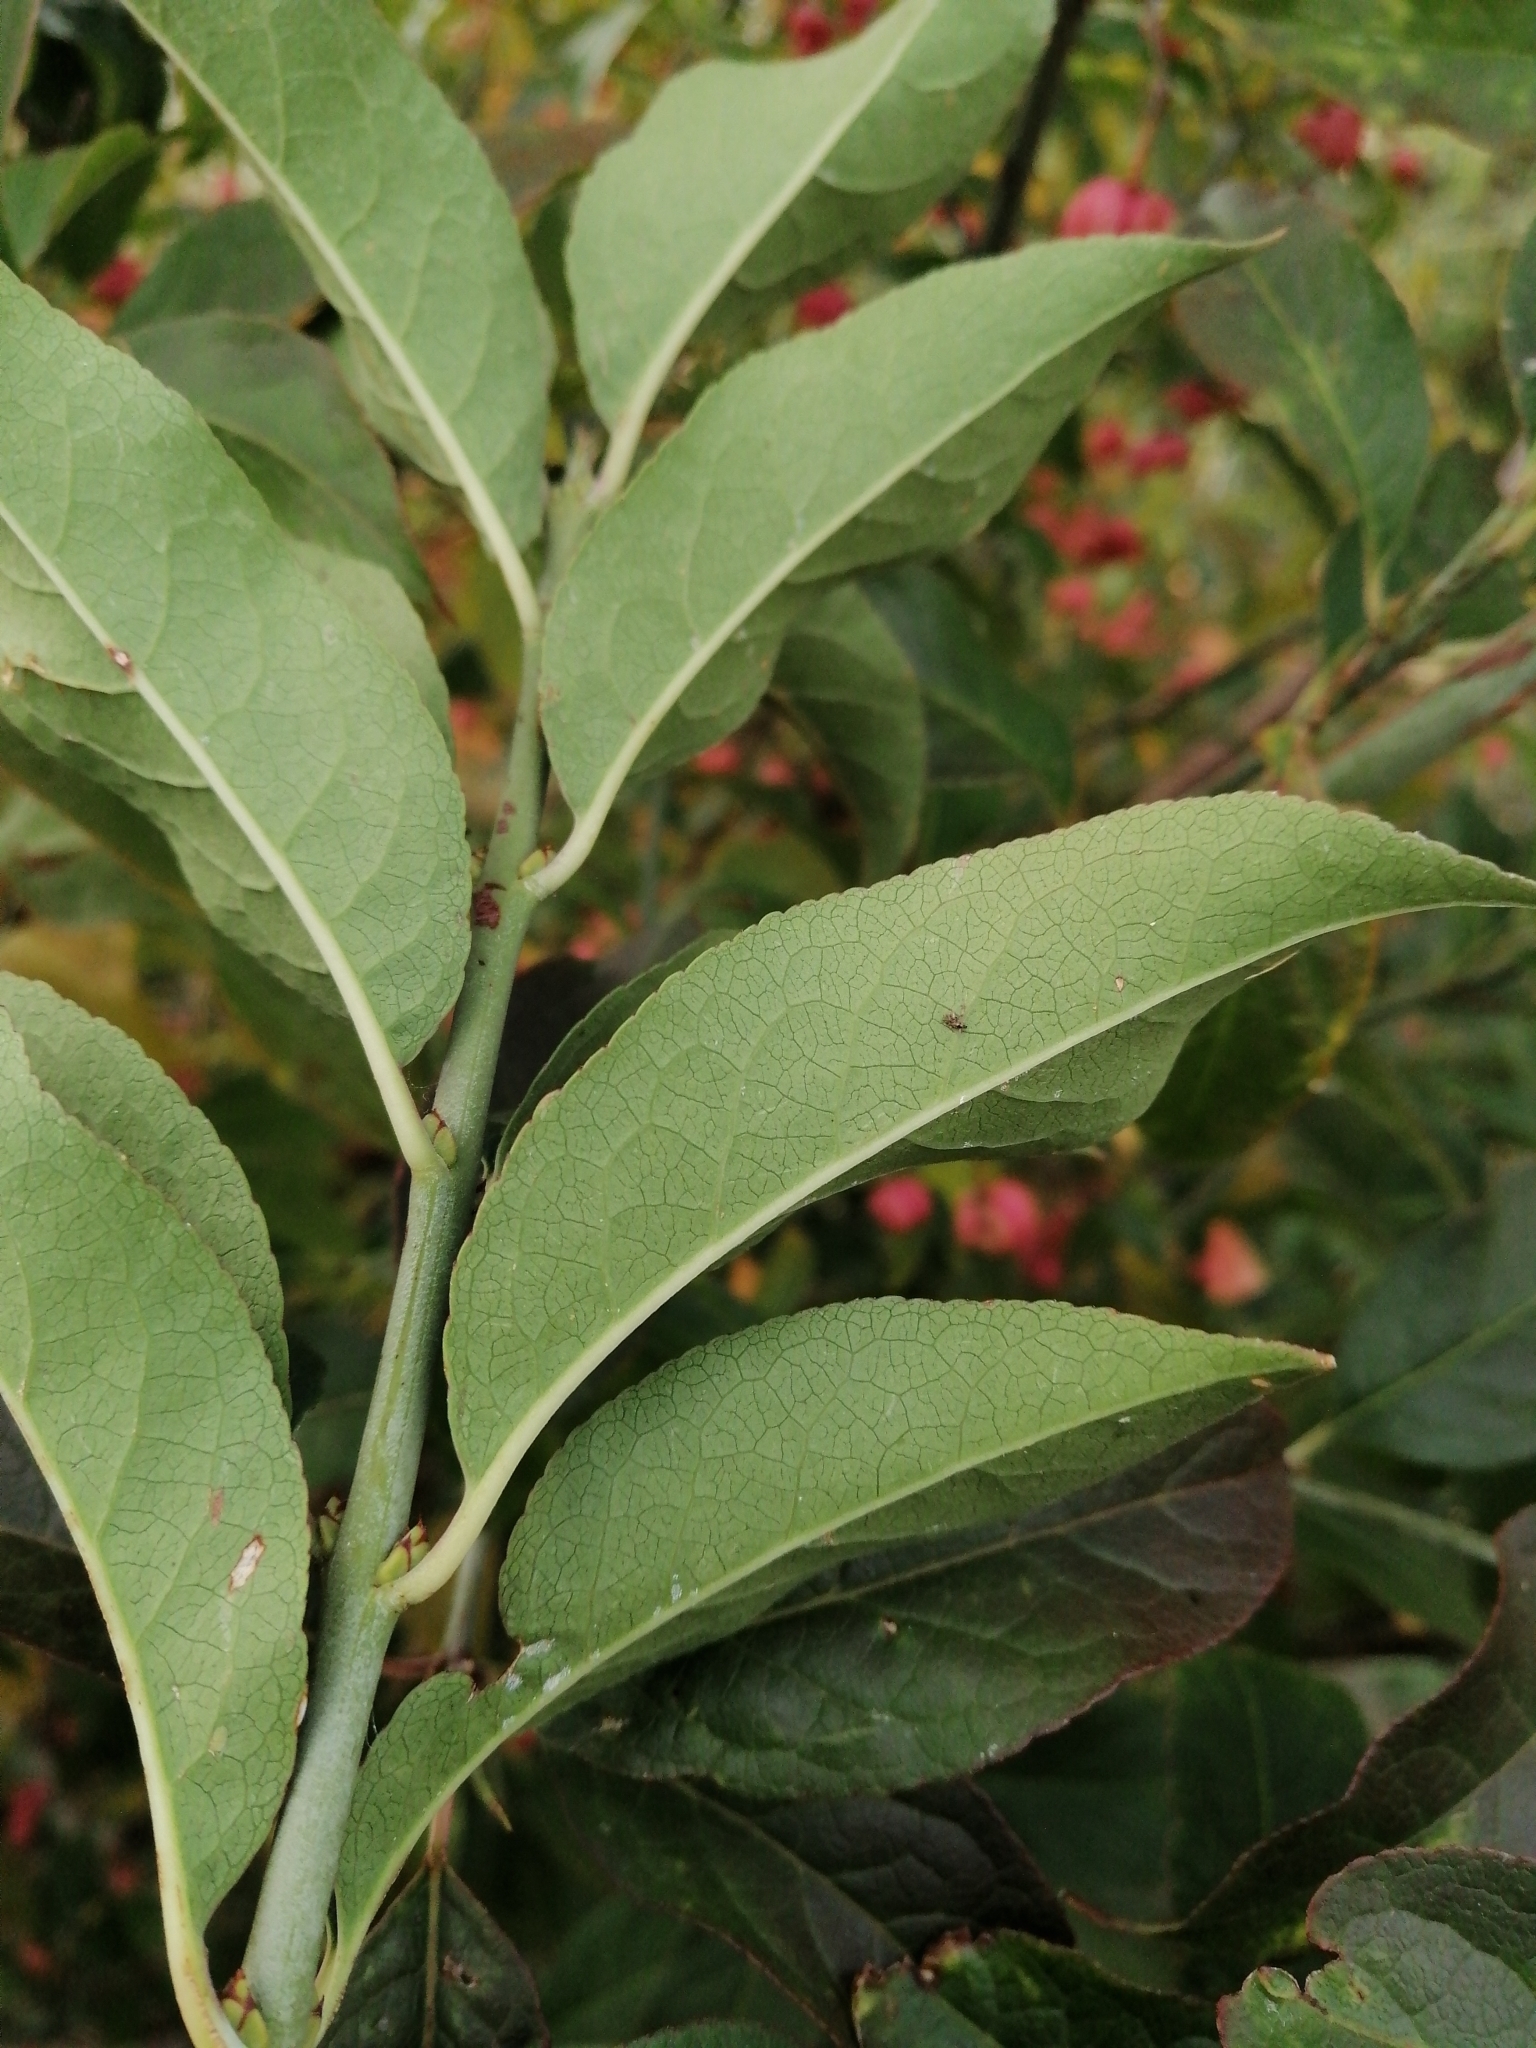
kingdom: Plantae
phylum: Tracheophyta
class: Magnoliopsida
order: Celastrales
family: Celastraceae
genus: Euonymus
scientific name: Euonymus europaeus
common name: Spindle
